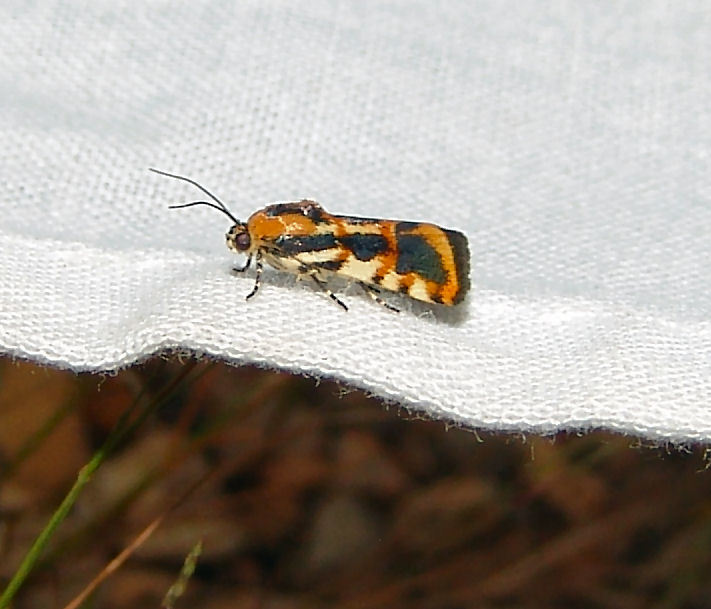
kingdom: Animalia
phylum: Arthropoda
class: Insecta
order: Lepidoptera
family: Noctuidae
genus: Acontia
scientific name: Acontia leo
